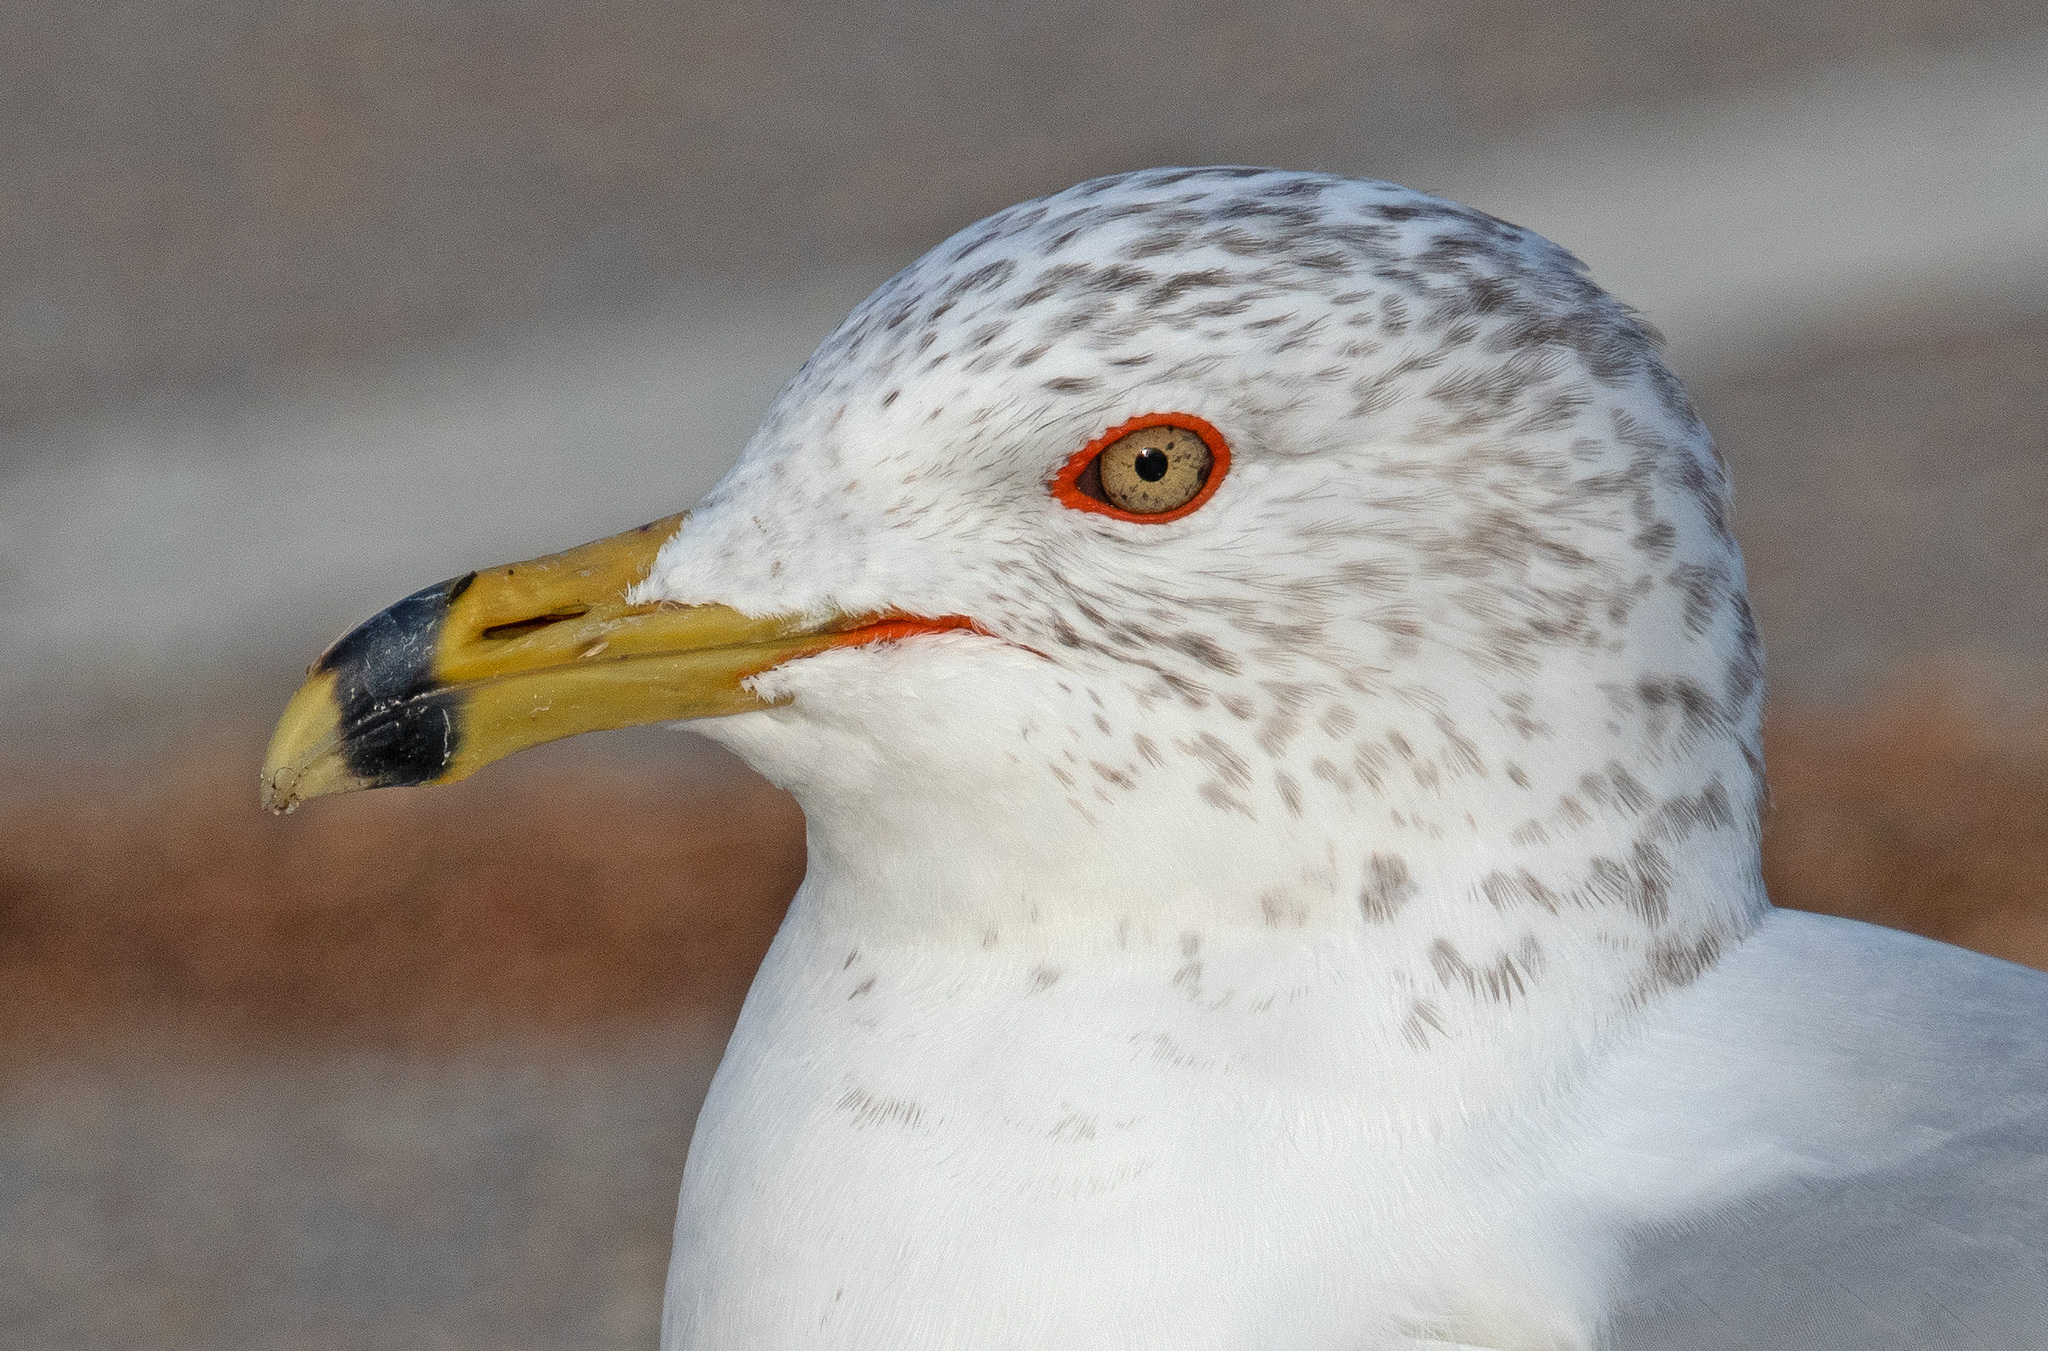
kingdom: Animalia
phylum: Chordata
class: Aves
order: Charadriiformes
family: Laridae
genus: Larus
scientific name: Larus delawarensis
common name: Ring-billed gull
